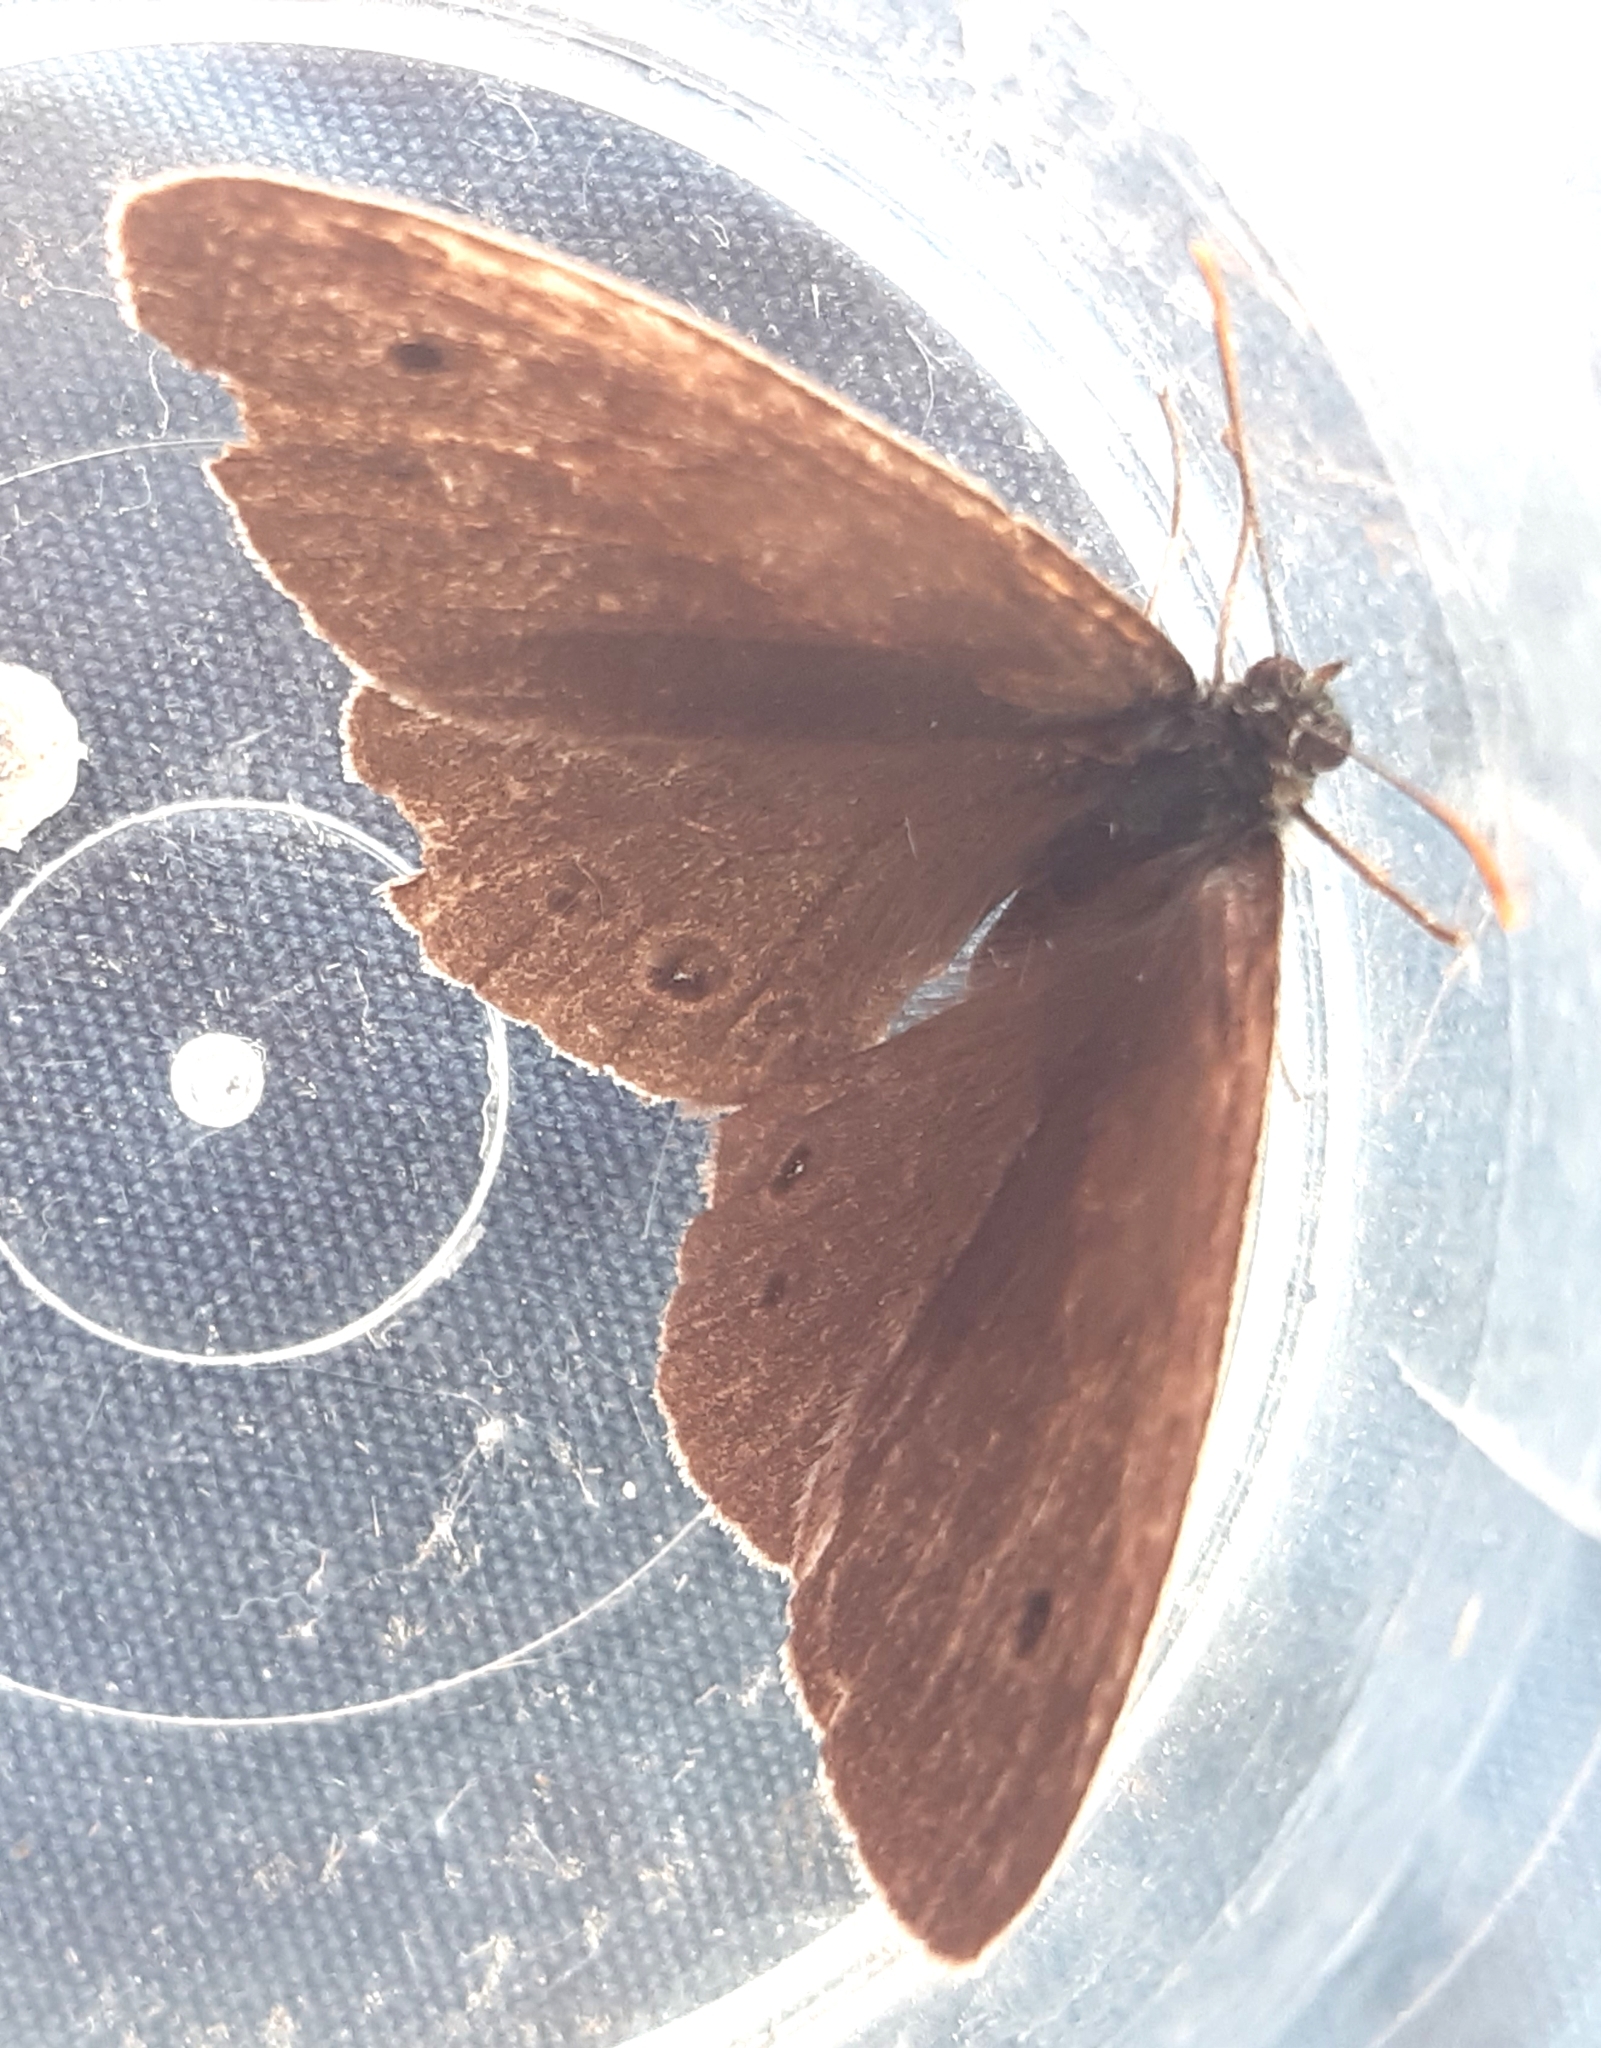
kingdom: Animalia
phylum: Arthropoda
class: Insecta
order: Lepidoptera
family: Nymphalidae
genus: Aphantopus
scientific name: Aphantopus hyperantus
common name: Ringlet
